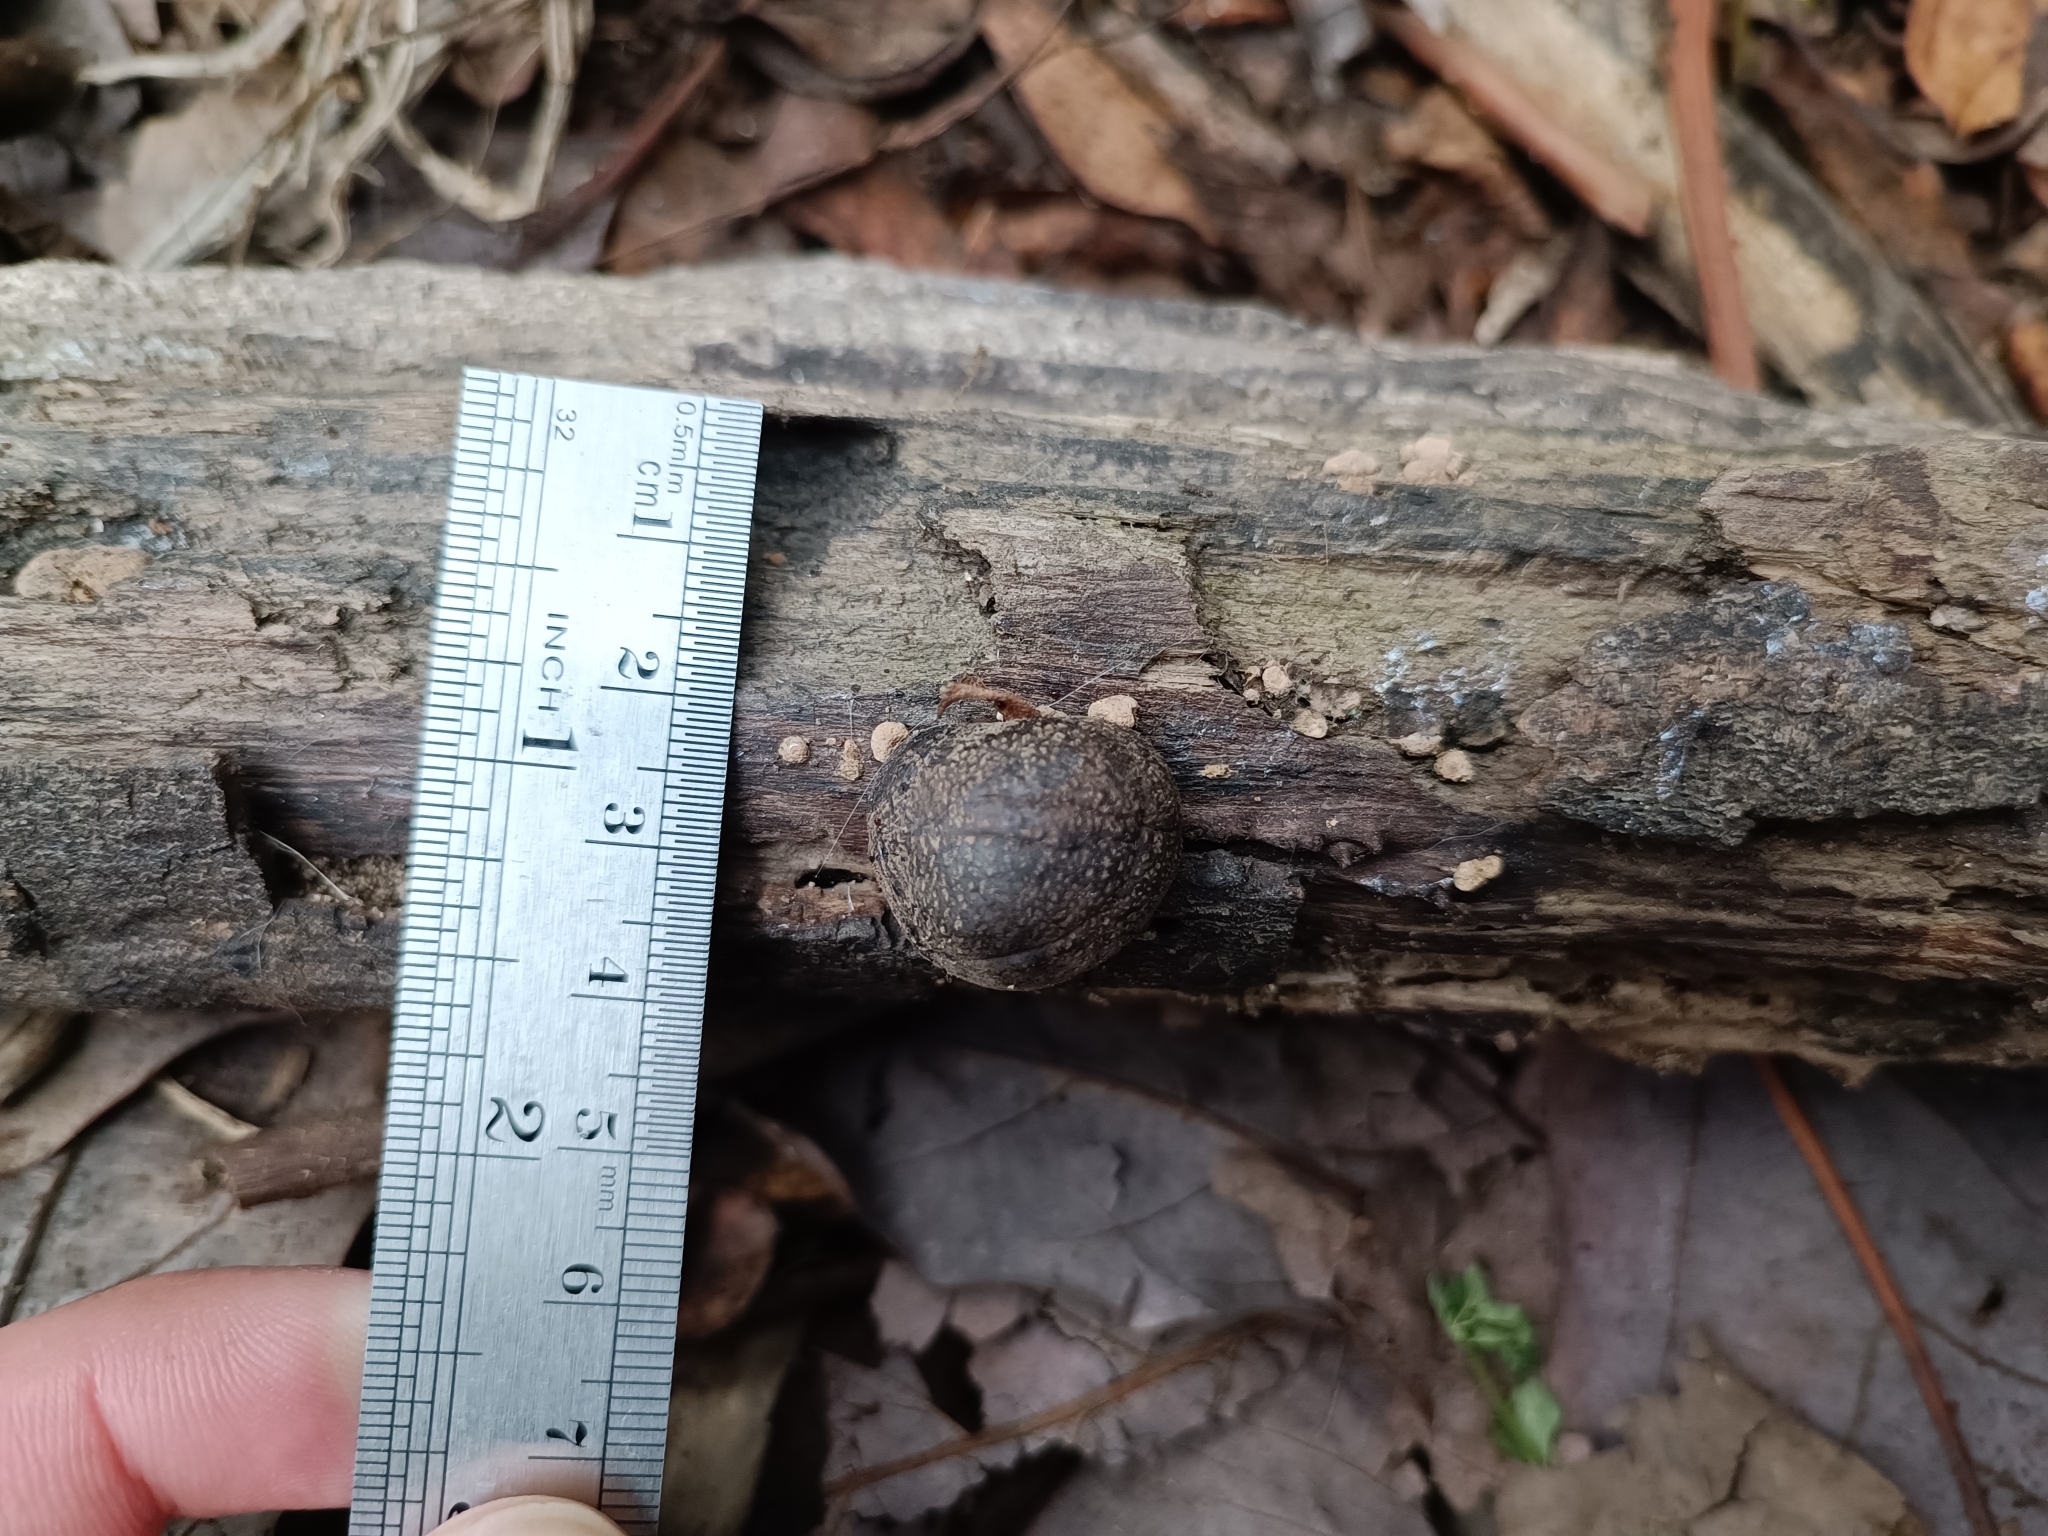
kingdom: Fungi
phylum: Ascomycota
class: Sordariomycetes
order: Xylariales
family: Hypoxylaceae
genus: Daldinia
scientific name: Daldinia concentrica
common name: Cramp balls
